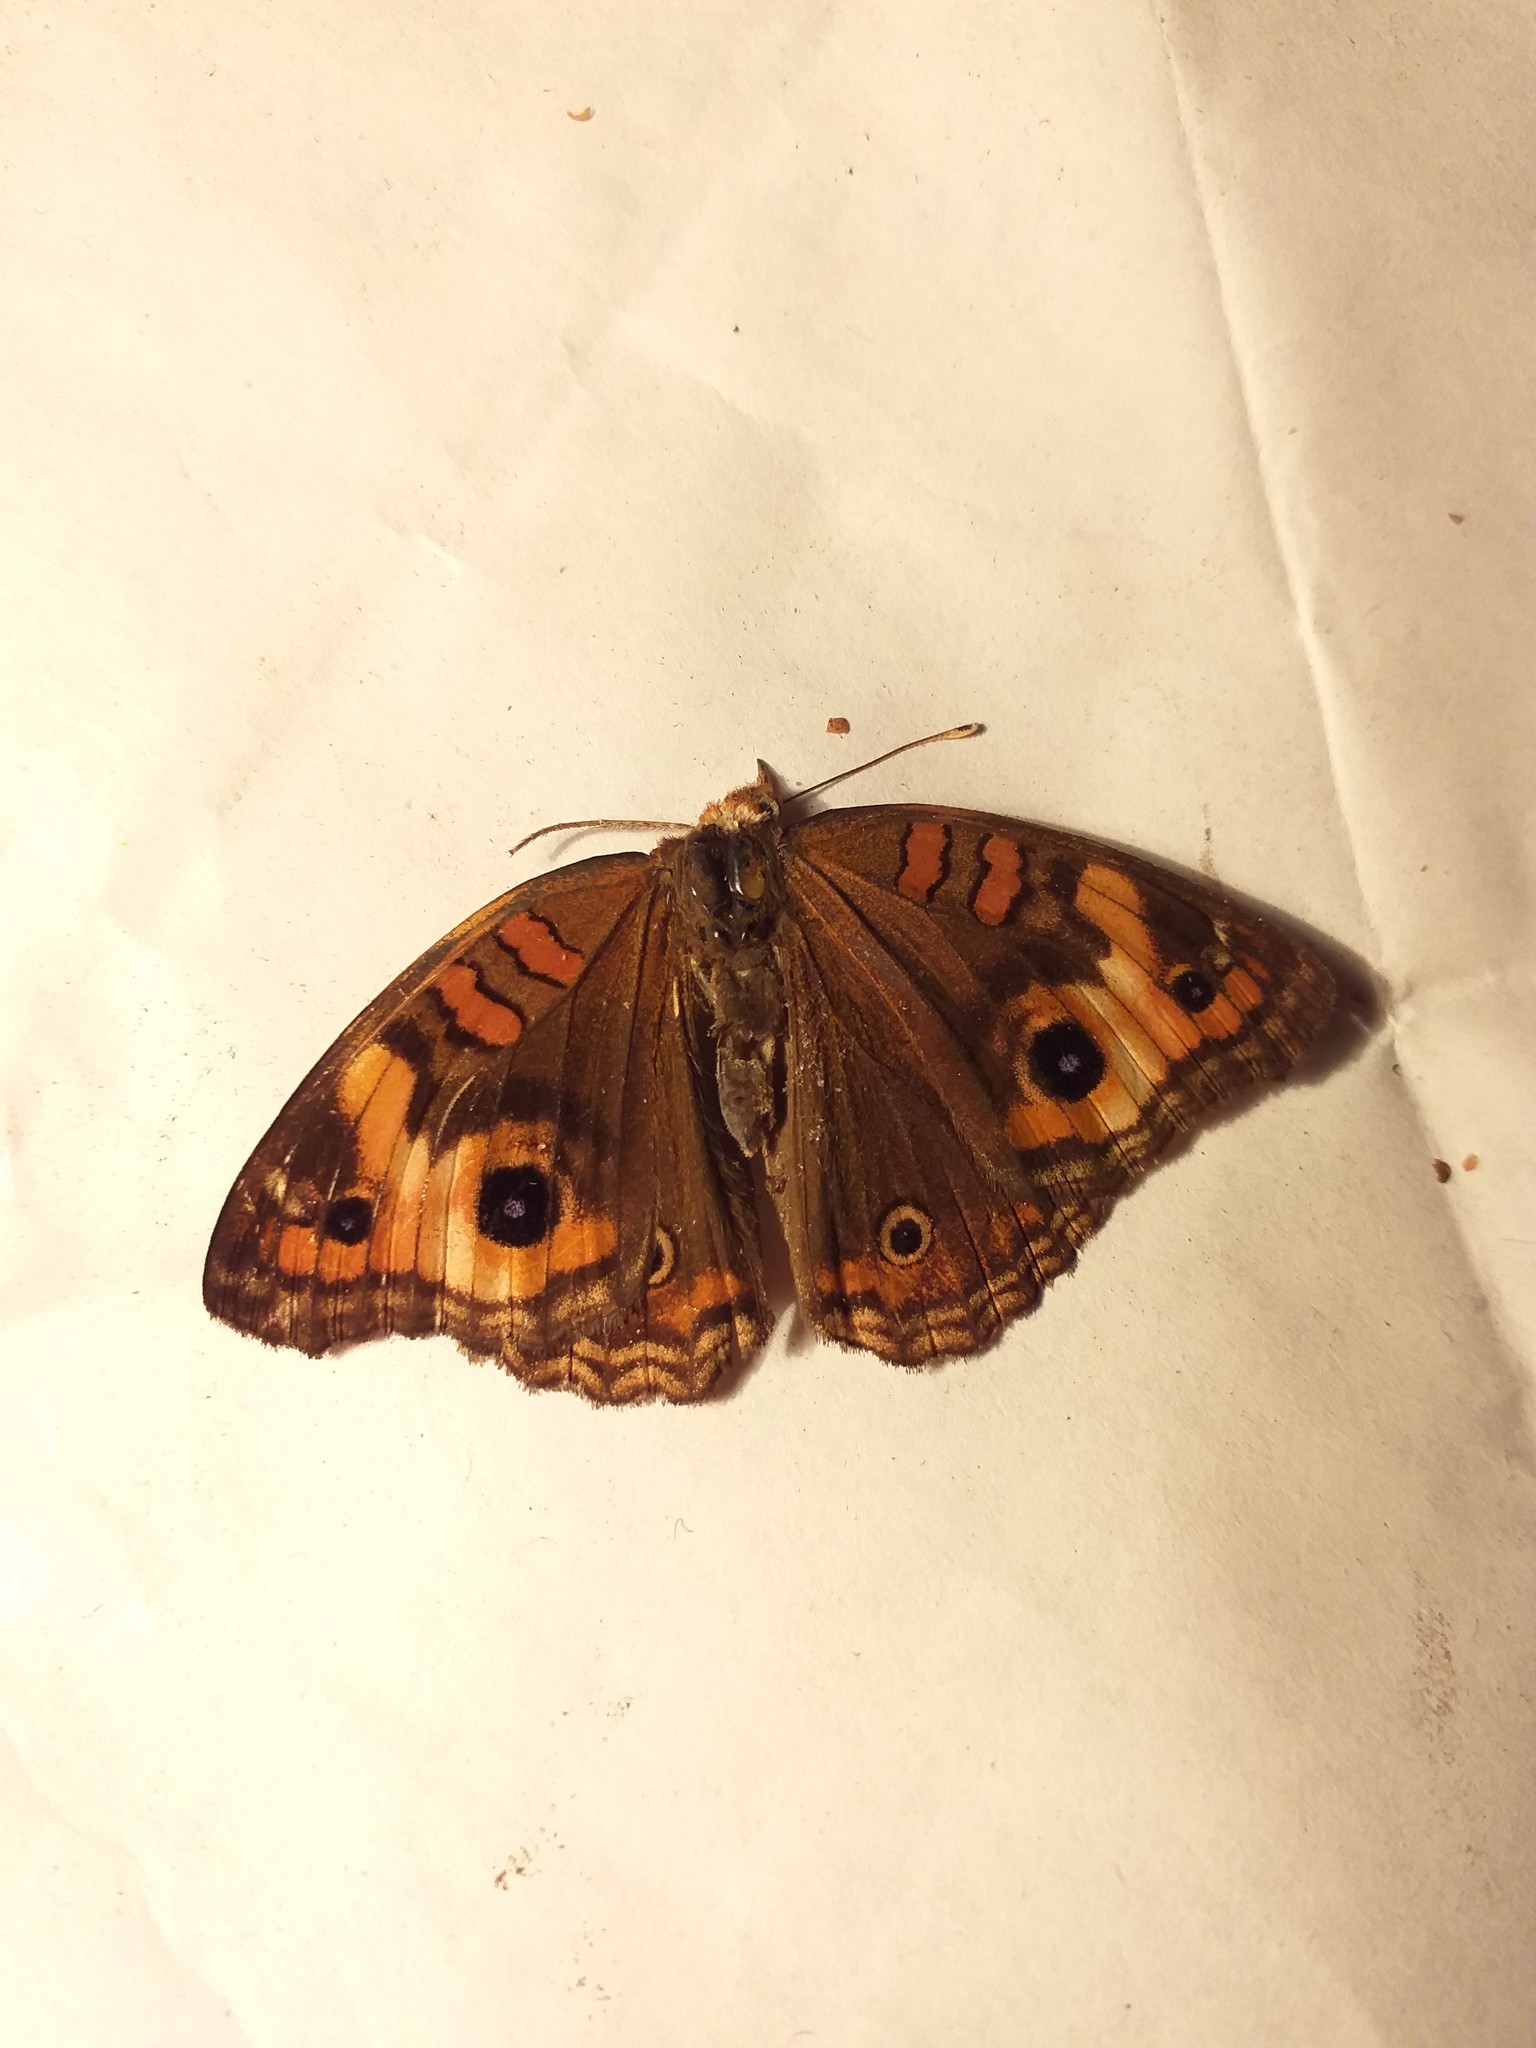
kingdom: Animalia
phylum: Arthropoda
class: Insecta
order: Lepidoptera
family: Nymphalidae
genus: Junonia
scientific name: Junonia lavinia
